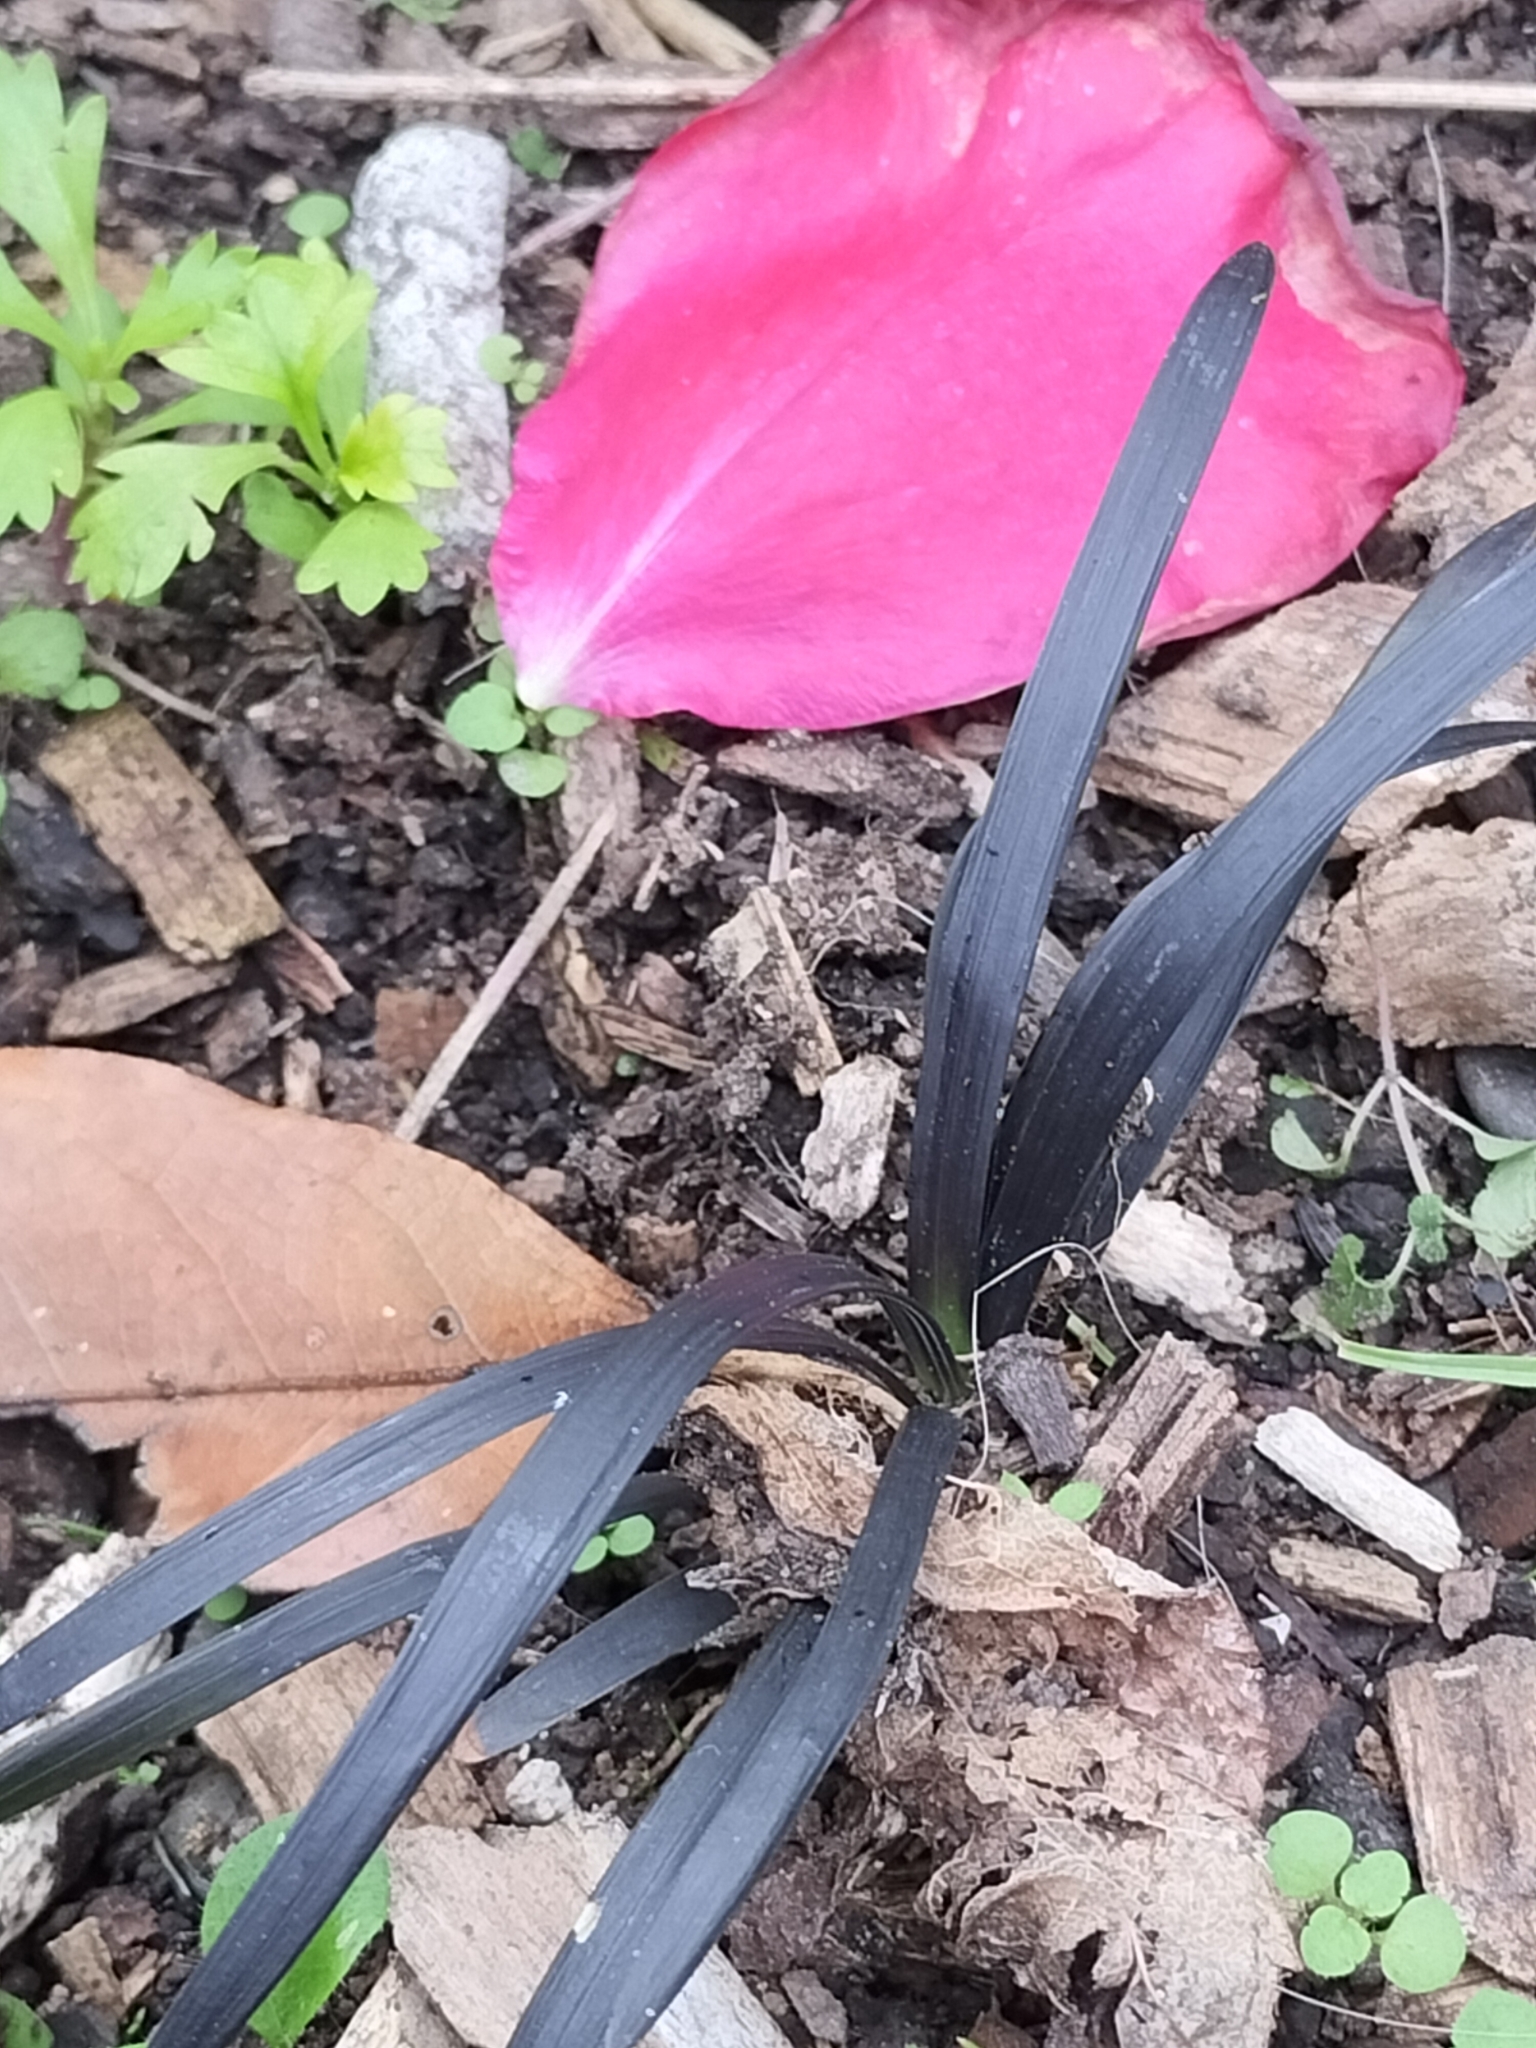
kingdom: Plantae
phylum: Tracheophyta
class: Liliopsida
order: Asparagales
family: Asparagaceae
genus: Ophiopogon
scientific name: Ophiopogon planiscapus
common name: Black mondo
